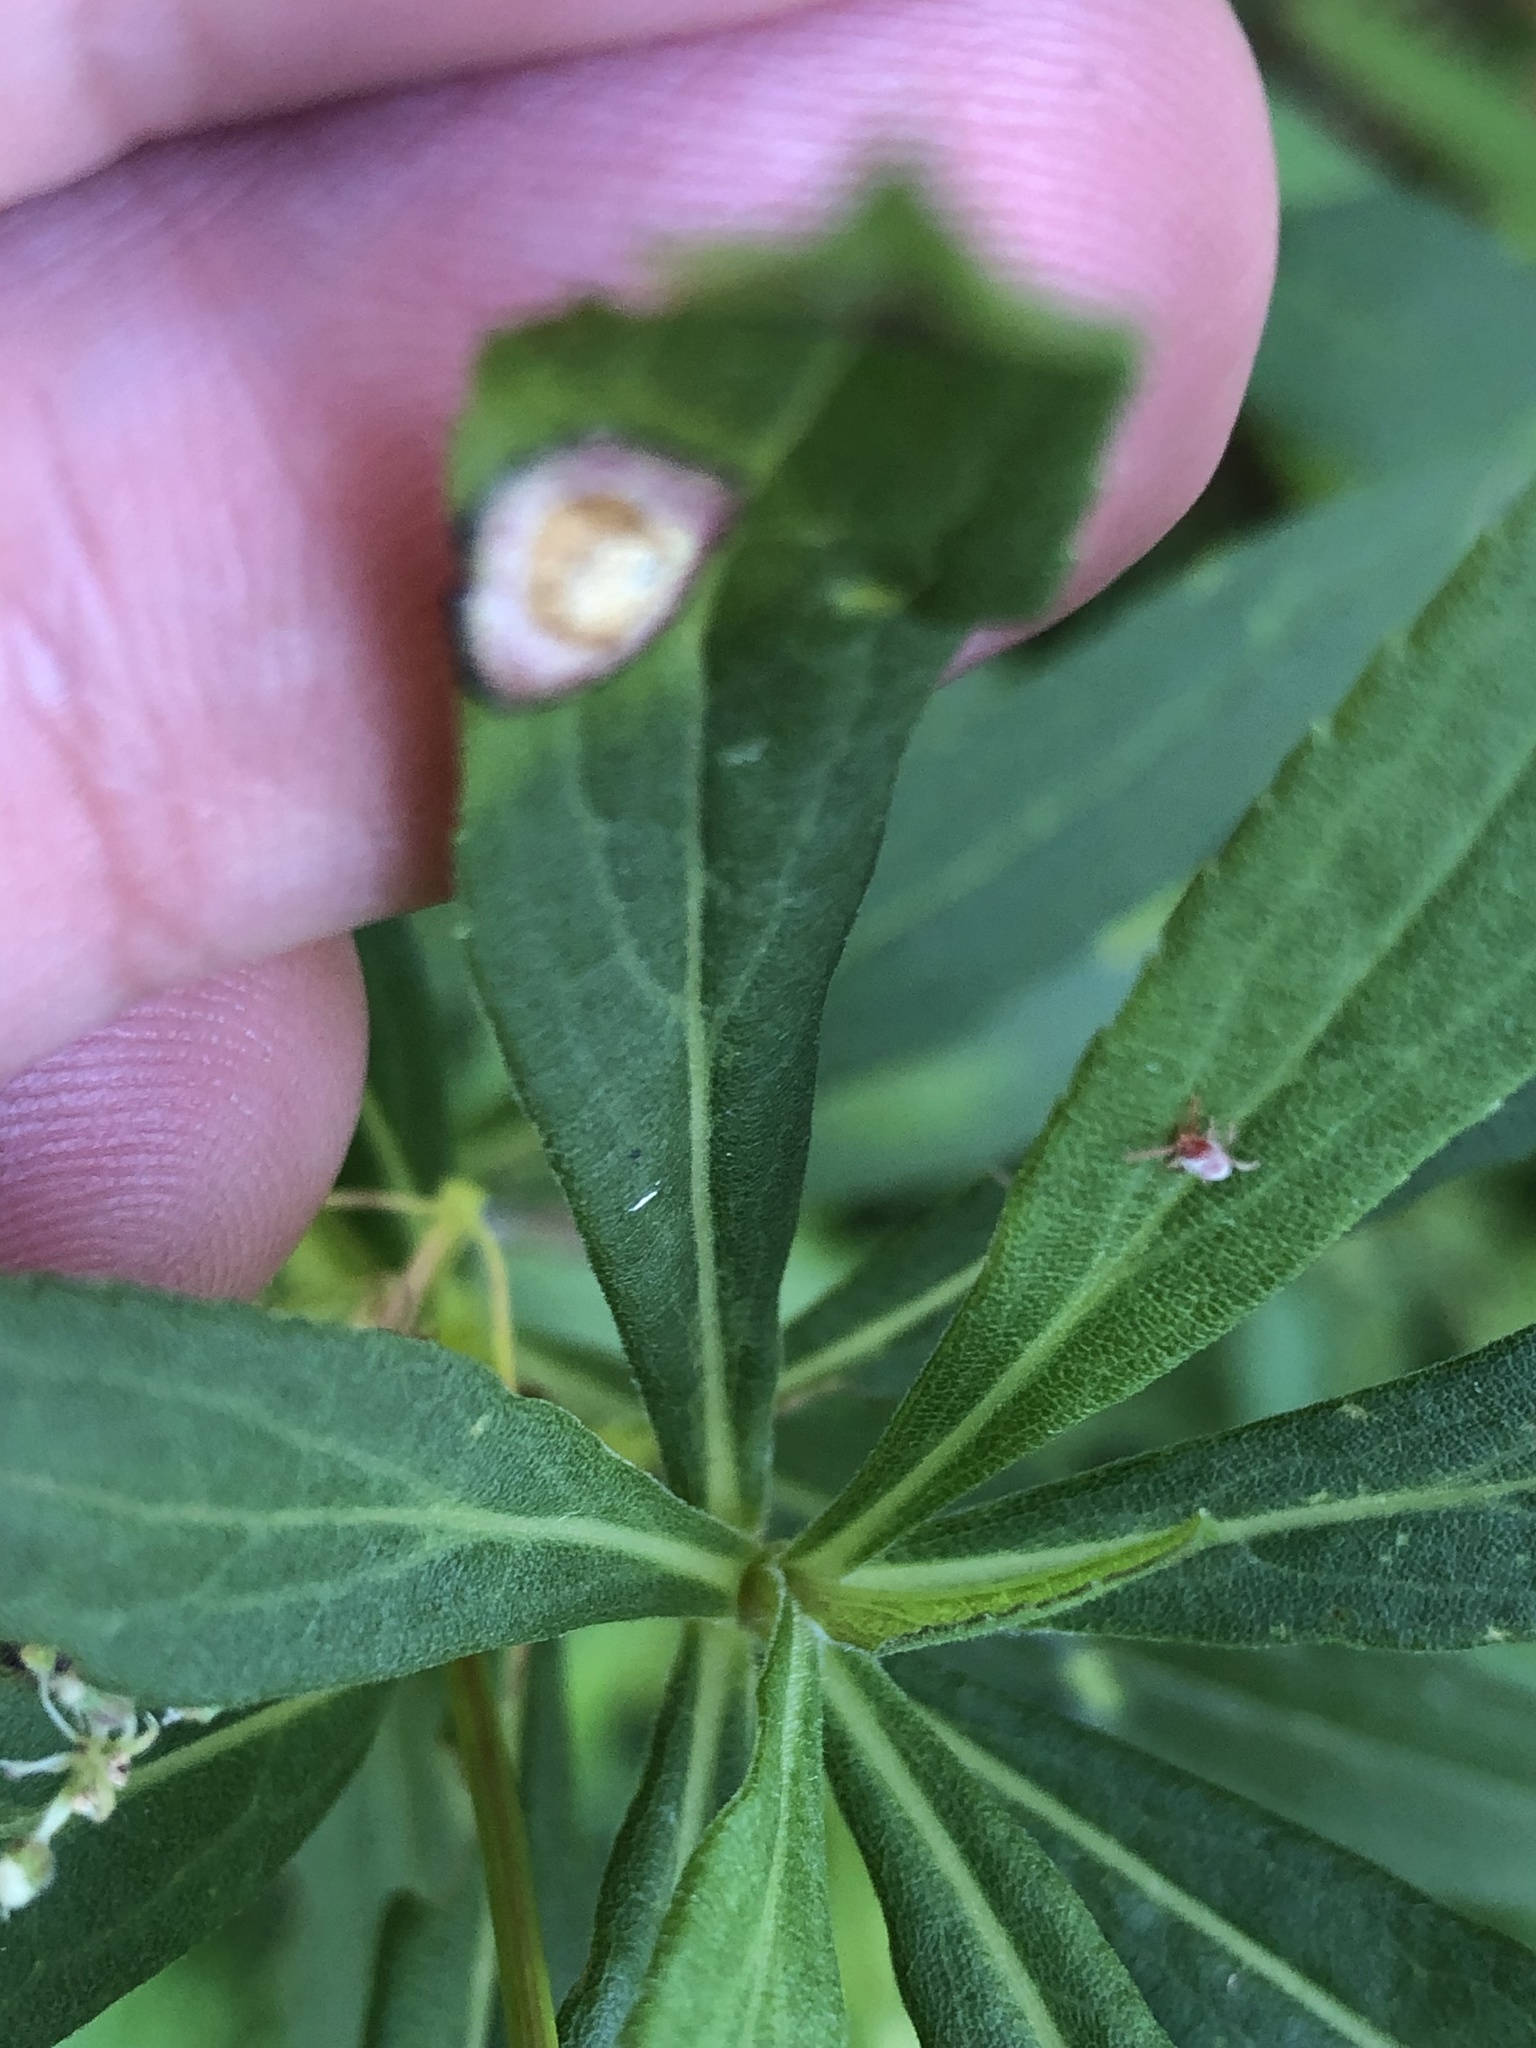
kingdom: Animalia
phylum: Arthropoda
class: Insecta
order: Diptera
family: Cecidomyiidae
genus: Asteromyia
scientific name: Asteromyia carbonifera
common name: Carbonifera goldenrod gall midge
